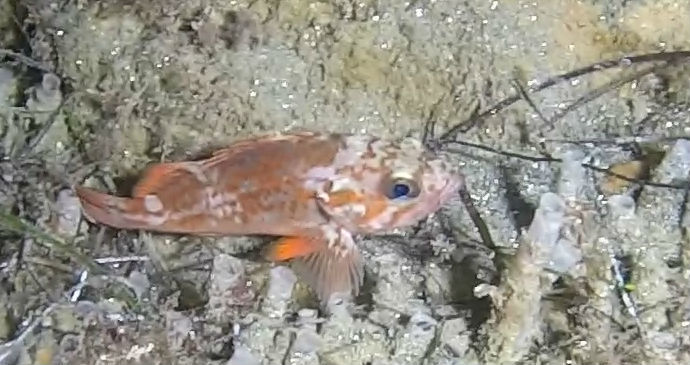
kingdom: Animalia
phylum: Chordata
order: Scorpaeniformes
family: Sebastidae
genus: Sebastes
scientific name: Sebastes miniatus
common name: Vermilion rockfish
